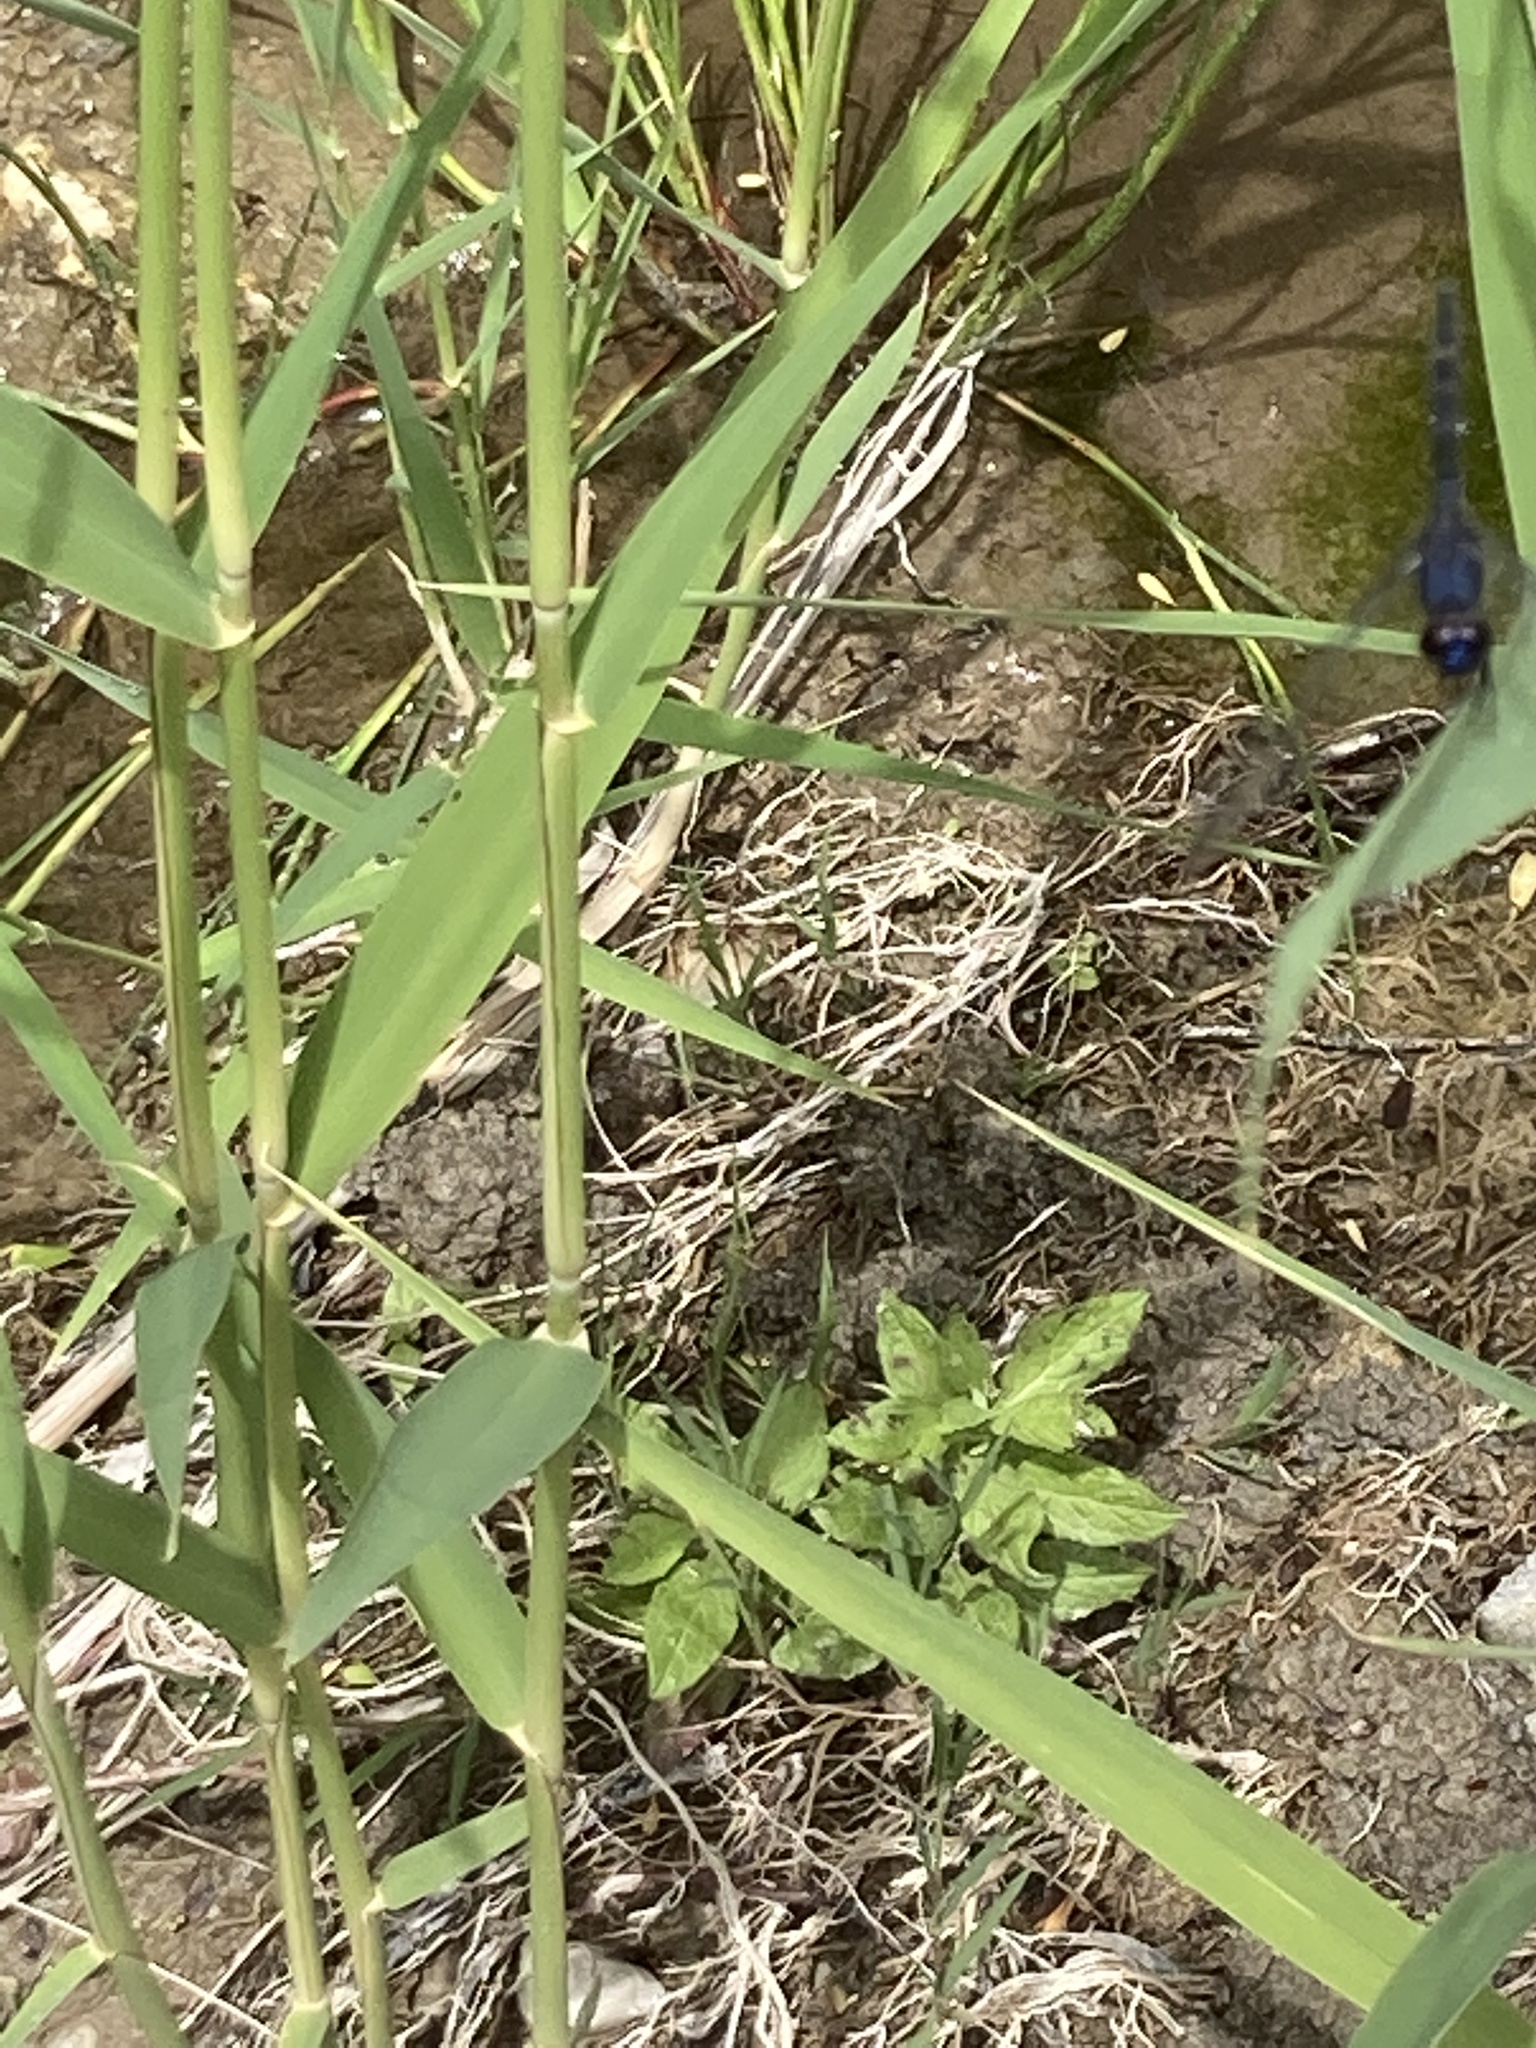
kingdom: Animalia
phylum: Arthropoda
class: Insecta
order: Odonata
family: Libellulidae
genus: Trithemis
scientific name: Trithemis festiva
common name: Indigo dropwing
